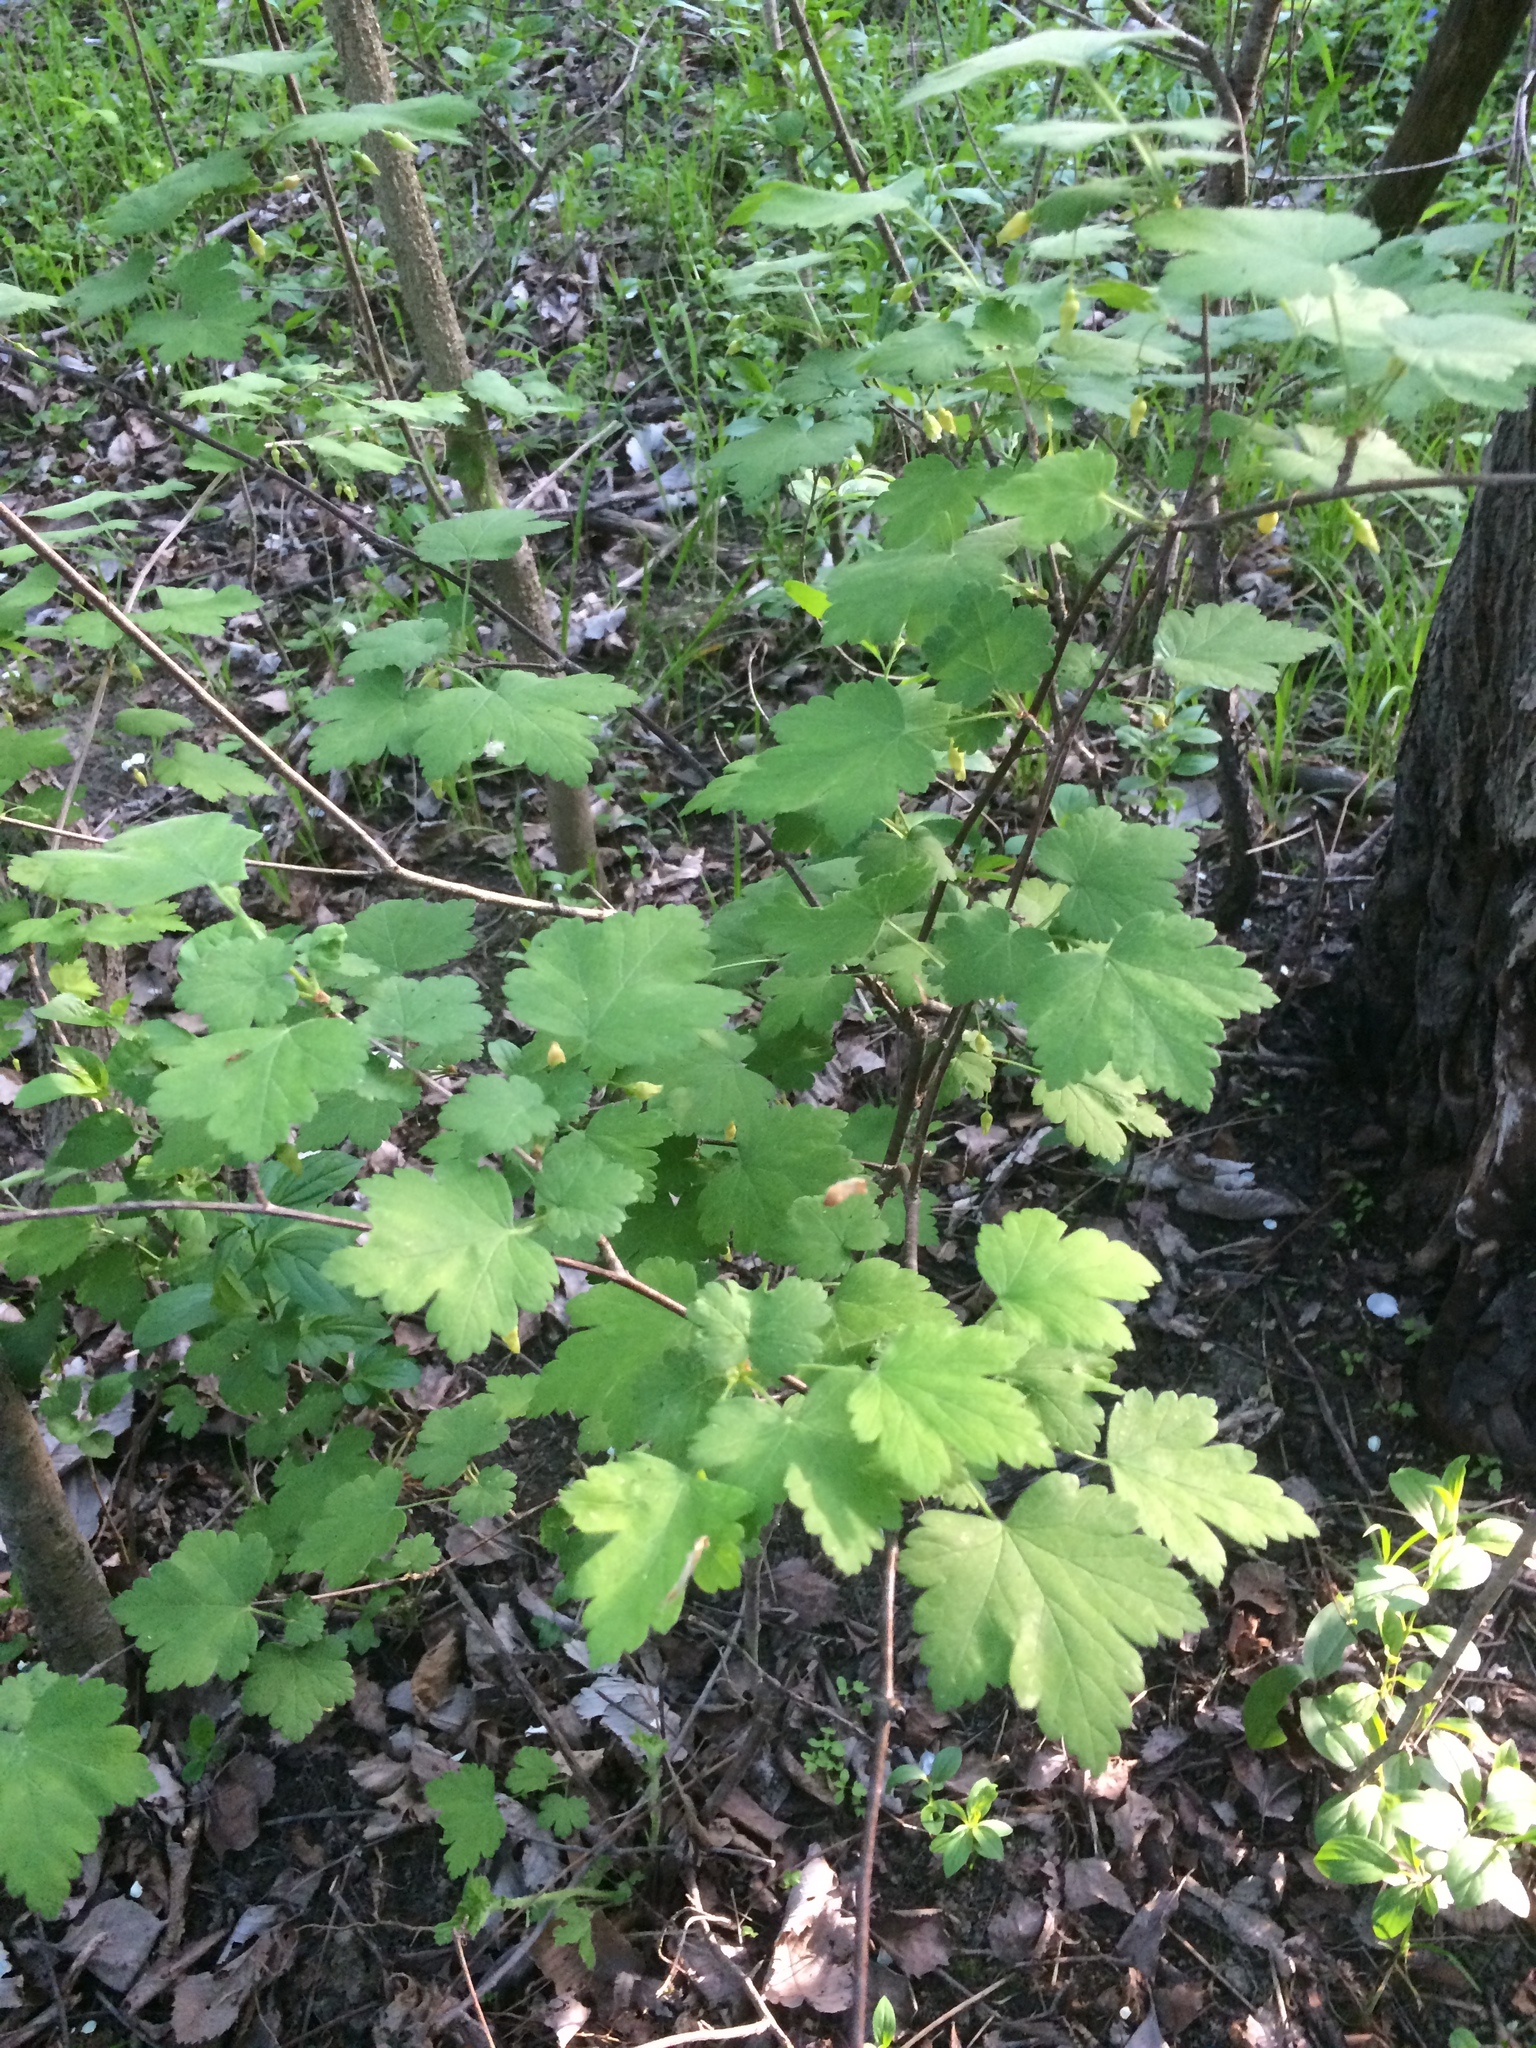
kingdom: Plantae
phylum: Tracheophyta
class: Magnoliopsida
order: Saxifragales
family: Grossulariaceae
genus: Ribes
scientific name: Ribes cynosbati
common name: American gooseberry
